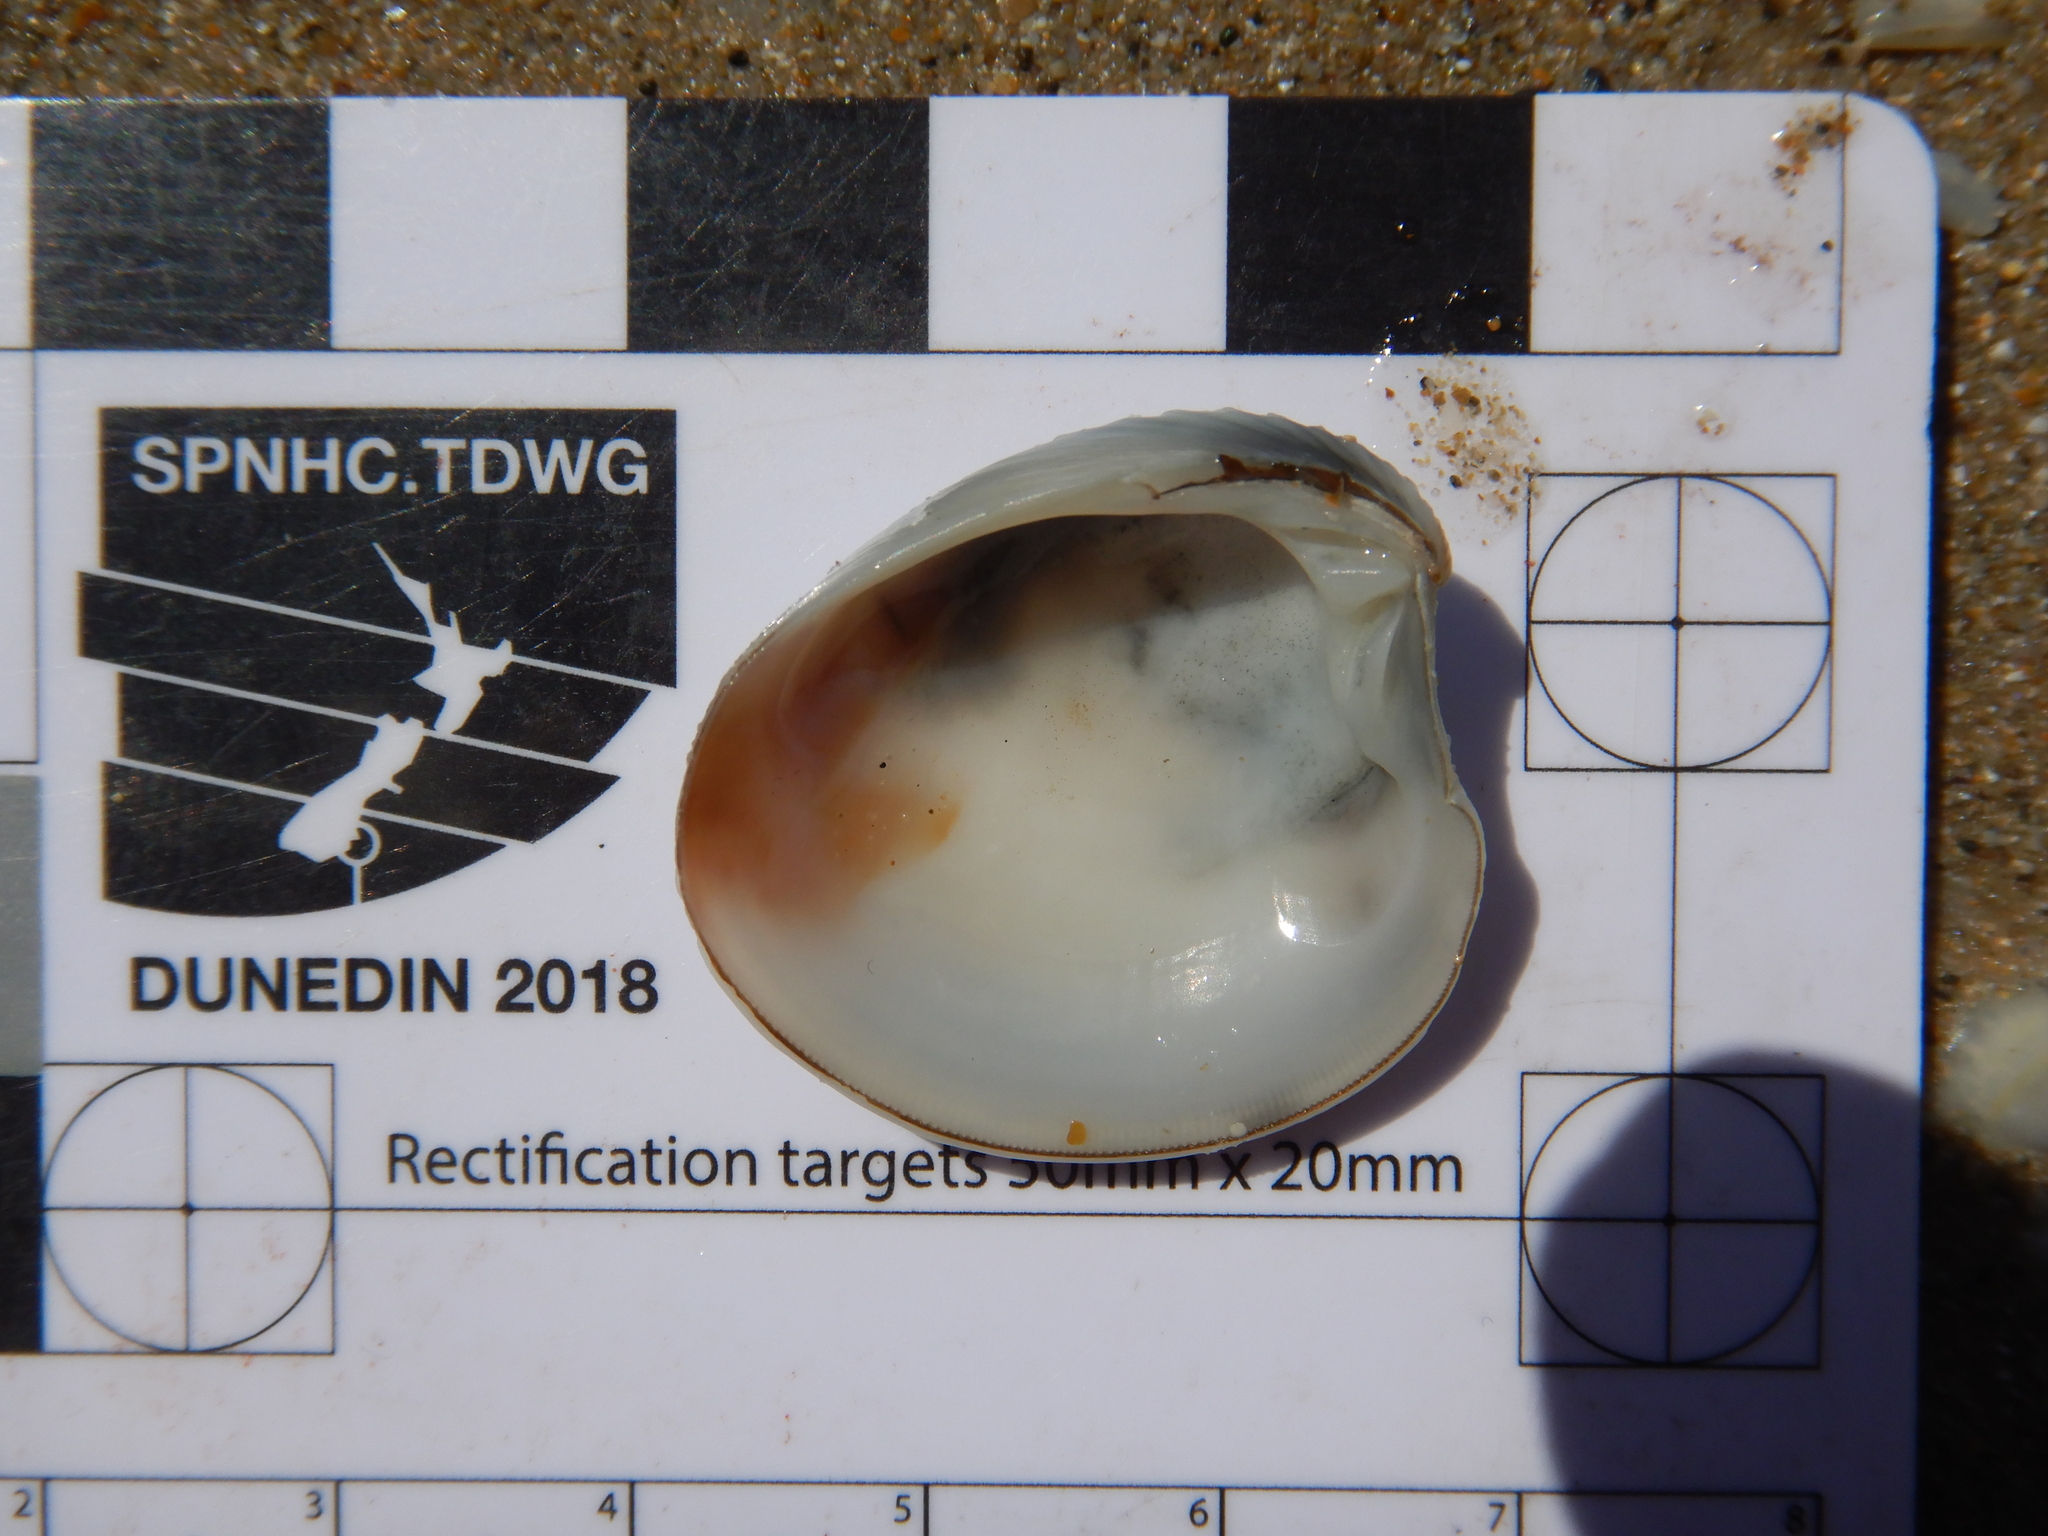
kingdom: Animalia
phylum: Mollusca
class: Bivalvia
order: Venerida
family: Veneridae
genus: Placamen
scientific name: Placamen placidum
